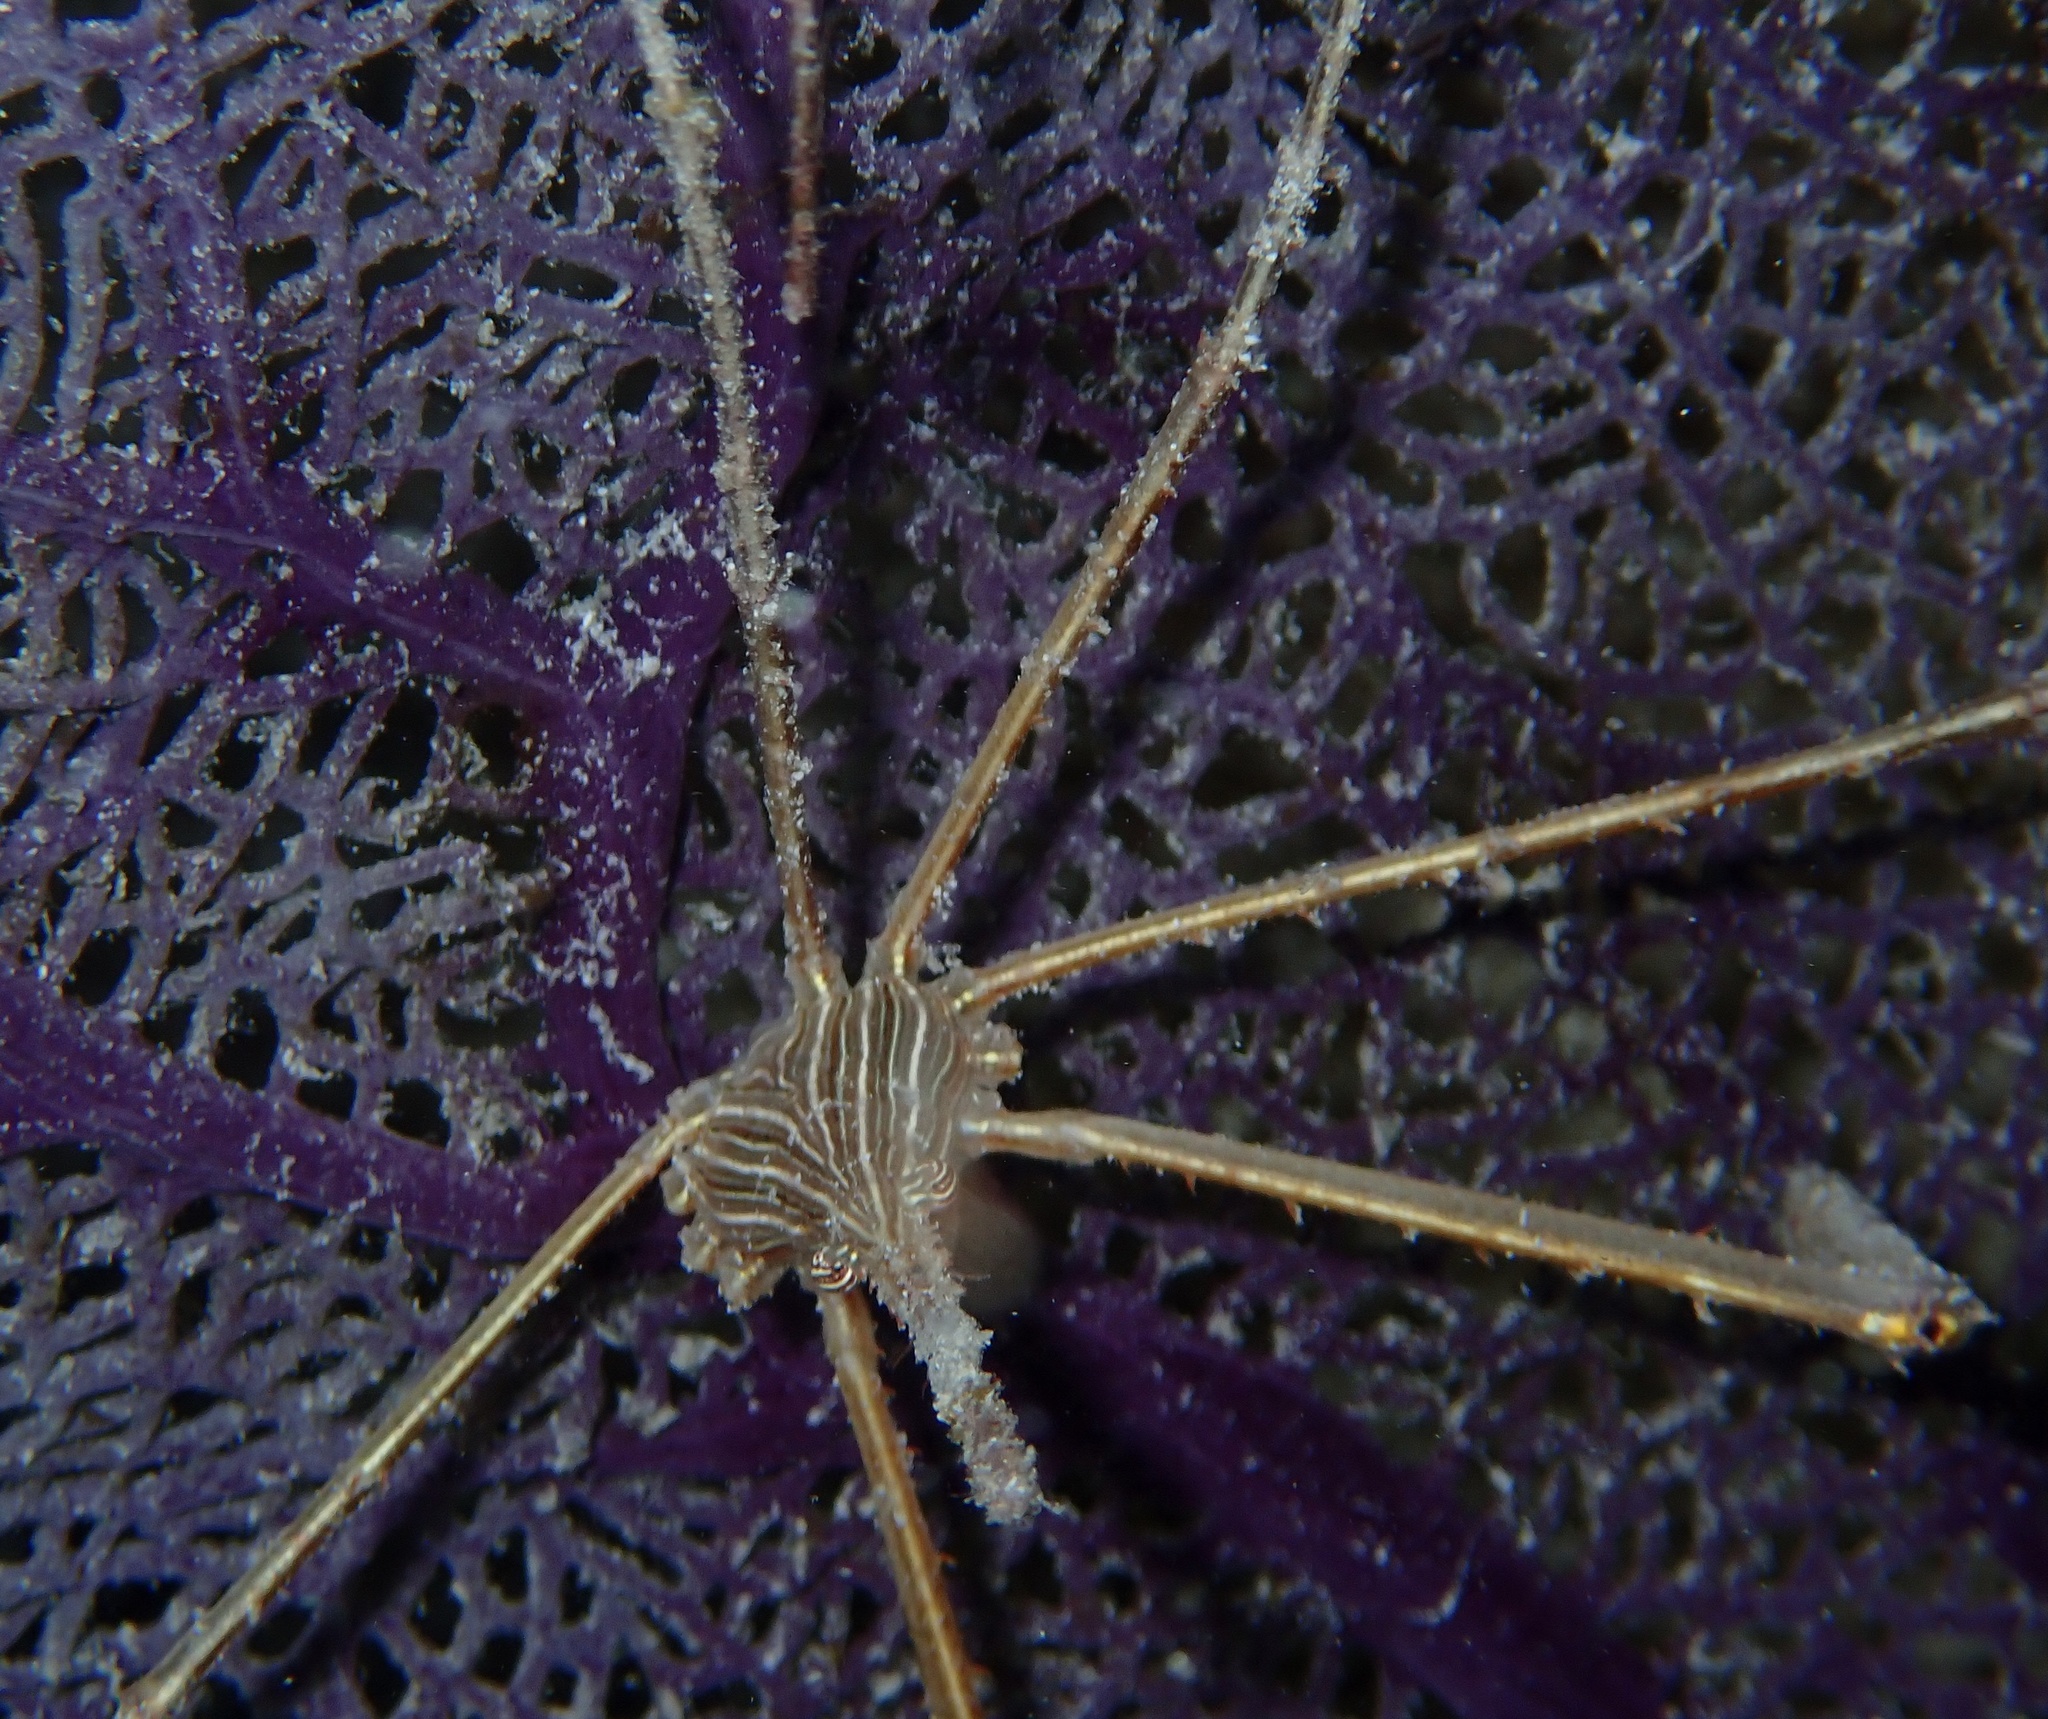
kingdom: Animalia
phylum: Arthropoda
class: Malacostraca
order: Decapoda
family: Inachoididae
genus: Stenorhynchus
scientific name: Stenorhynchus seticornis
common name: Arrow crab
